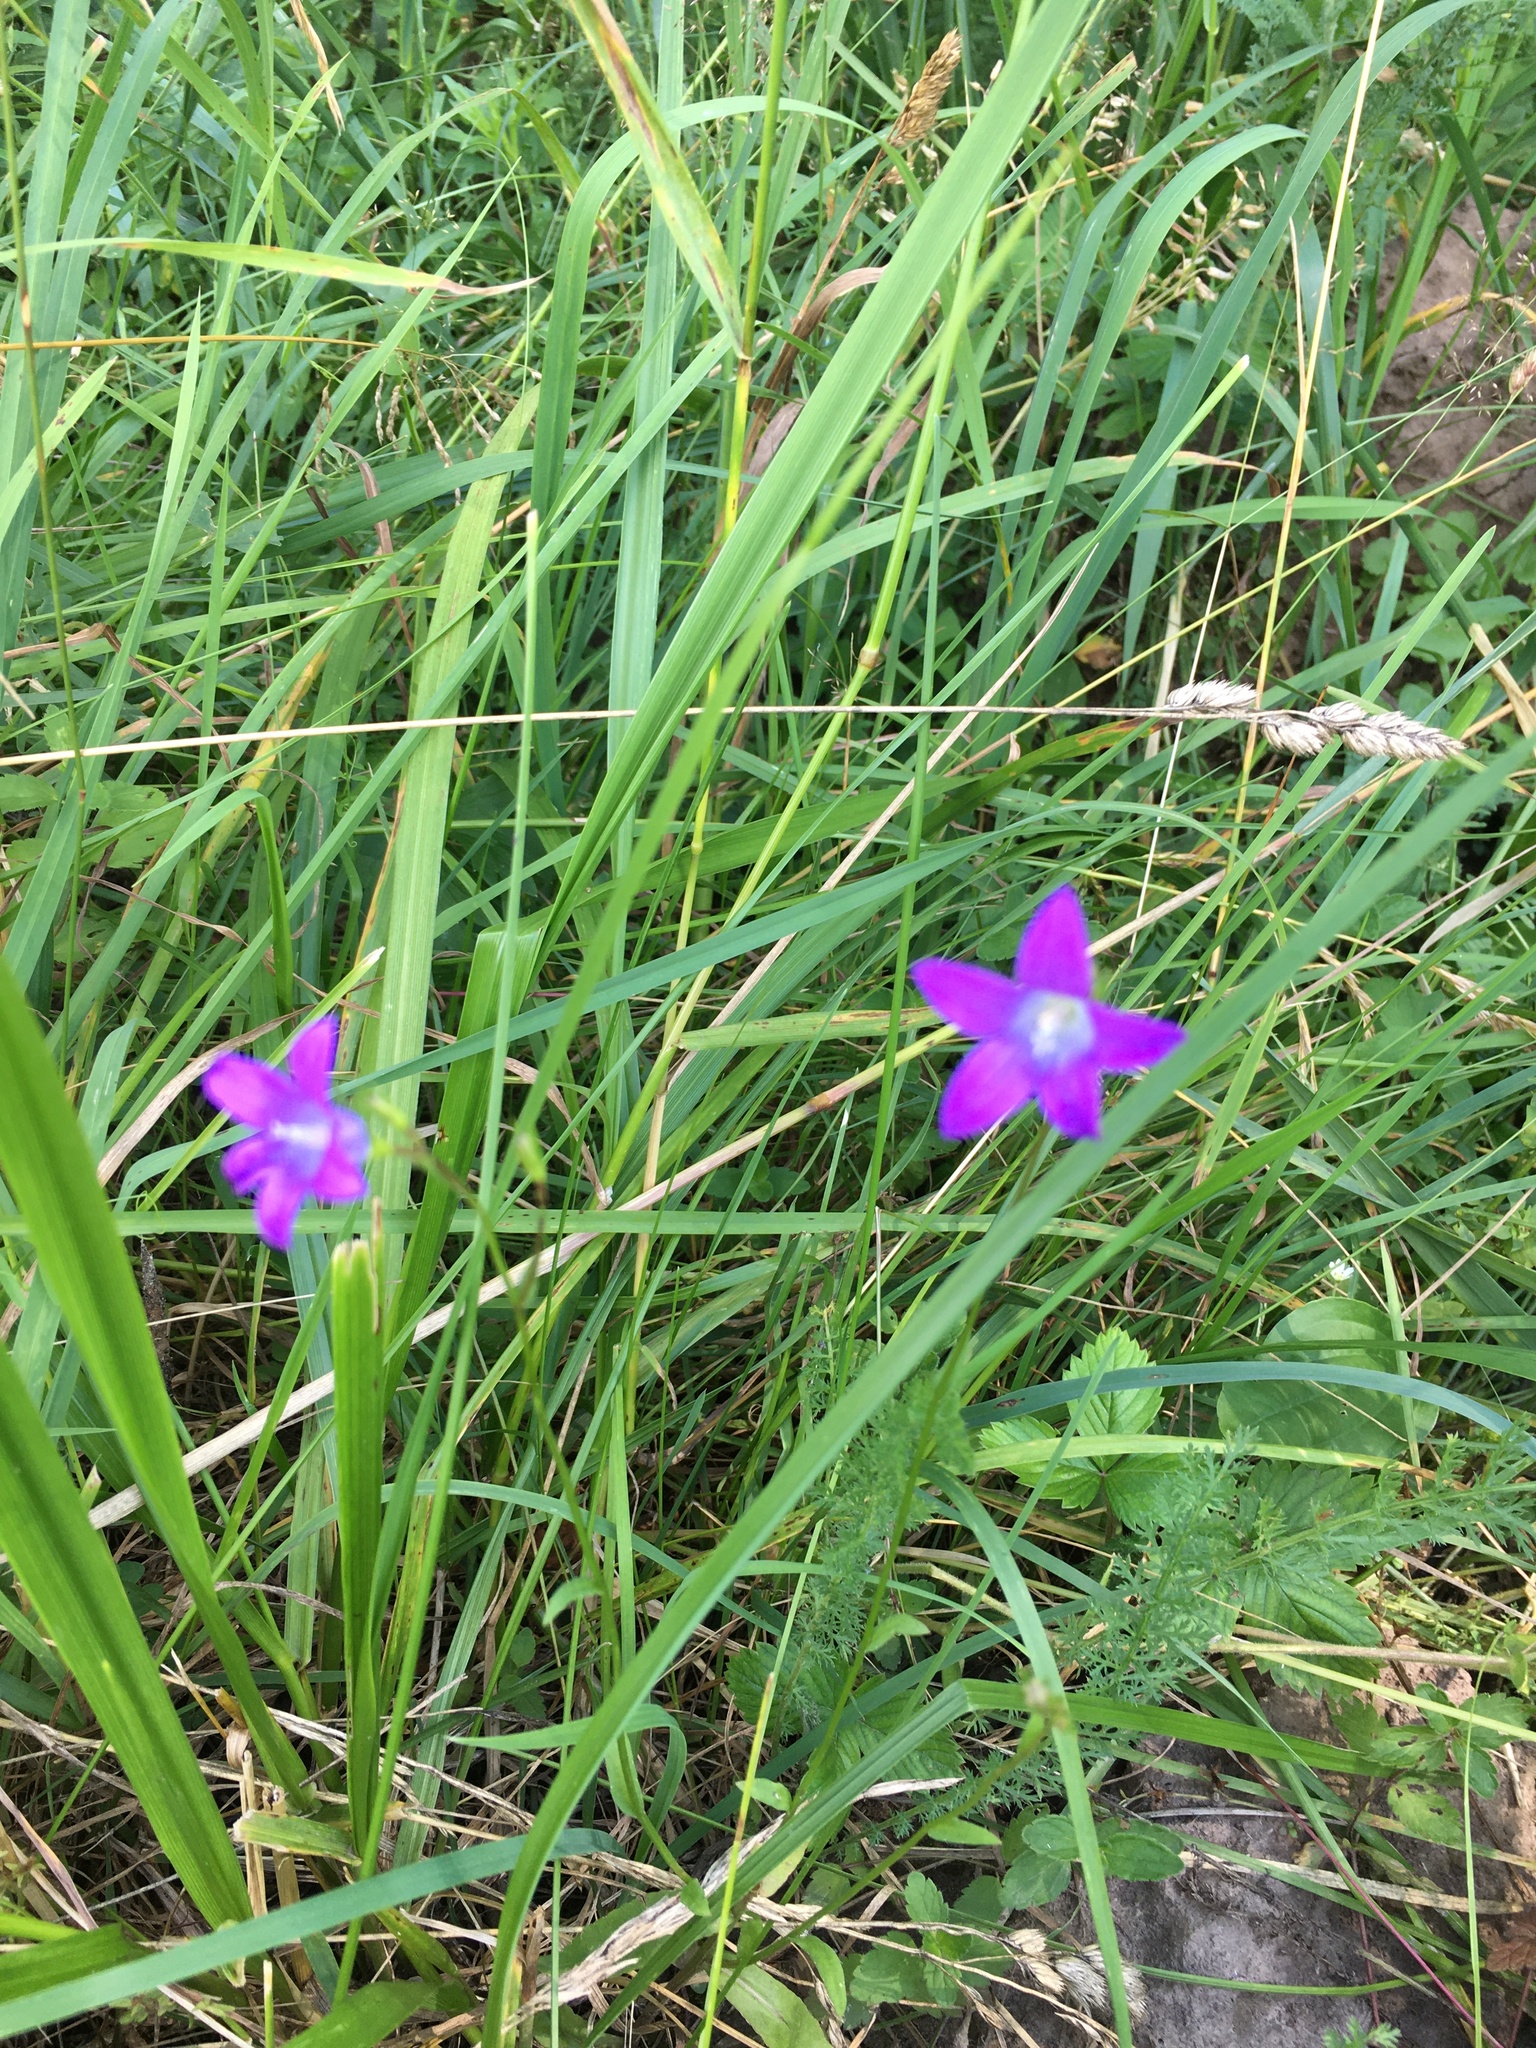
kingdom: Plantae
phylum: Tracheophyta
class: Magnoliopsida
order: Asterales
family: Campanulaceae
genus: Campanula
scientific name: Campanula patula
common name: Spreading bellflower
